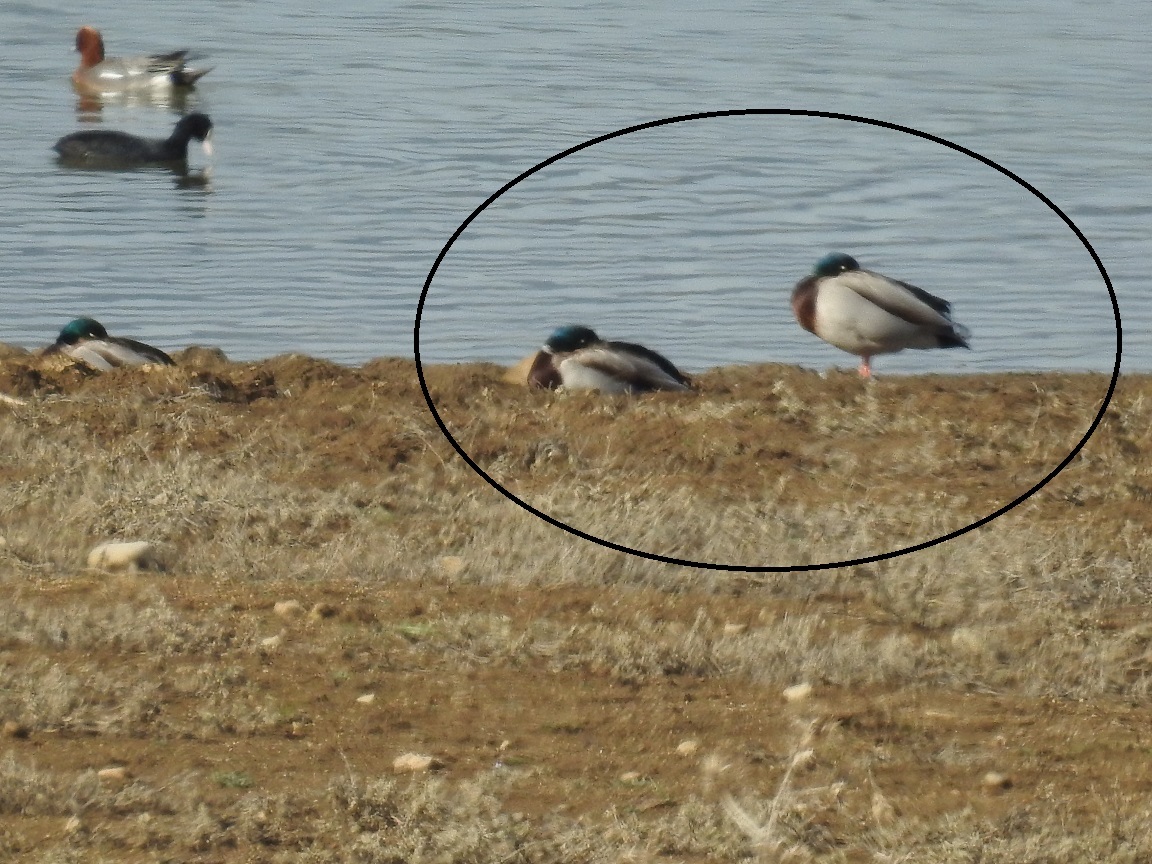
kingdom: Animalia
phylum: Chordata
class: Aves
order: Anseriformes
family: Anatidae
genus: Anas
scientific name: Anas platyrhynchos
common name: Mallard
